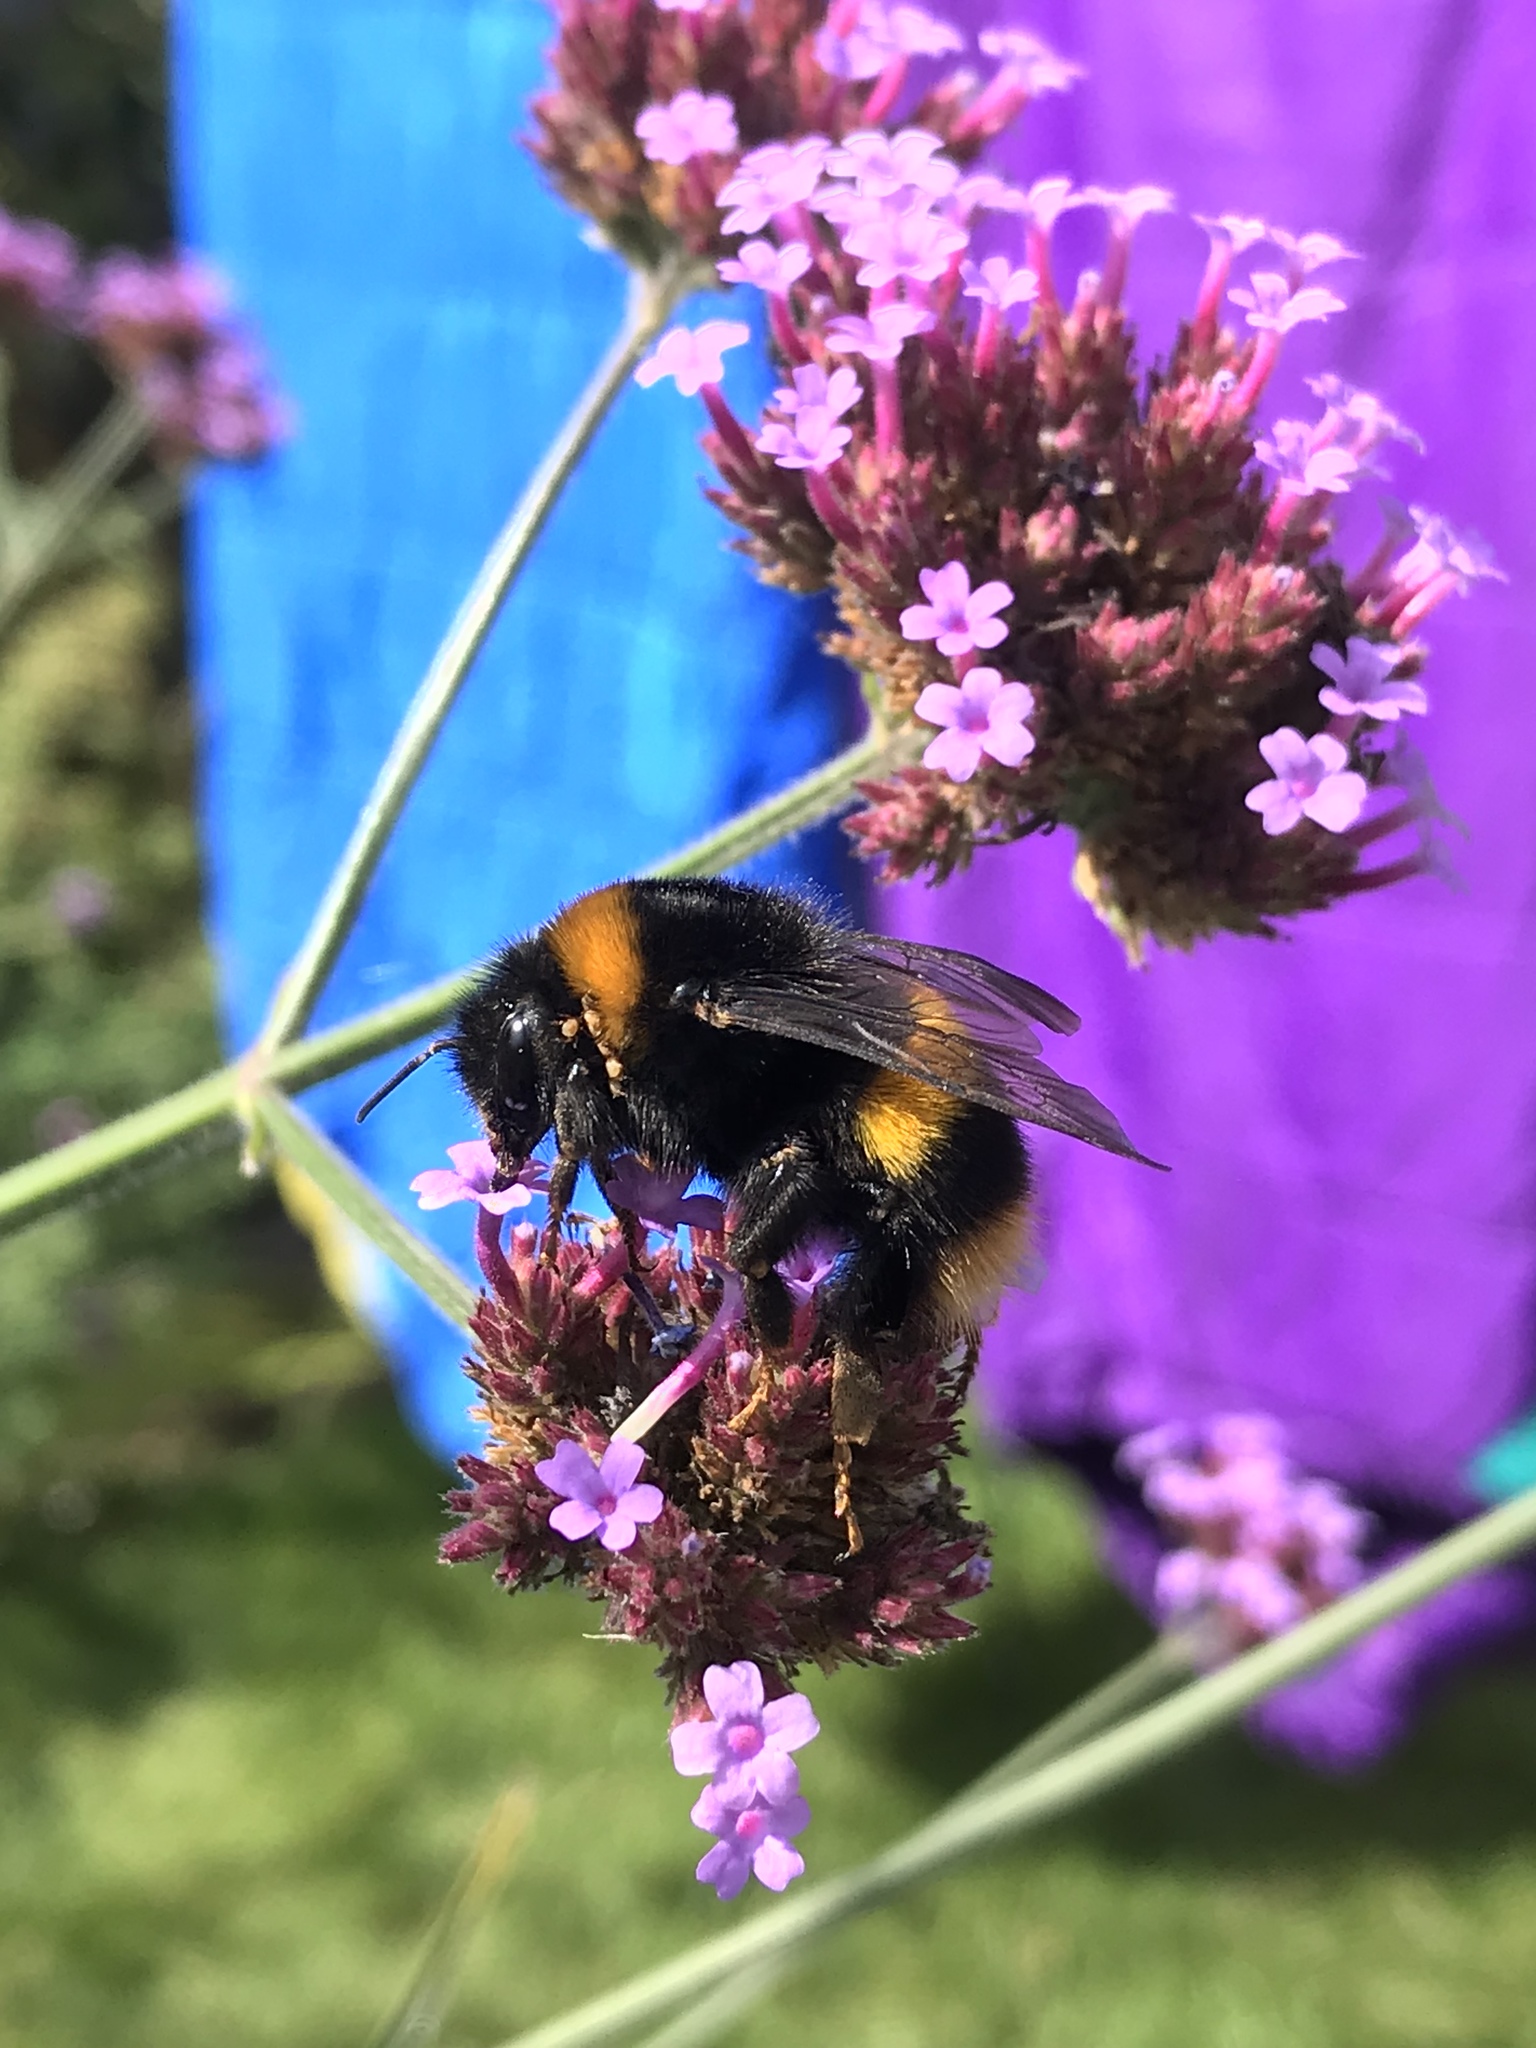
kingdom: Animalia
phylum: Arthropoda
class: Insecta
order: Hymenoptera
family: Apidae
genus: Bombus
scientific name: Bombus terrestris
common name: Buff-tailed bumblebee
